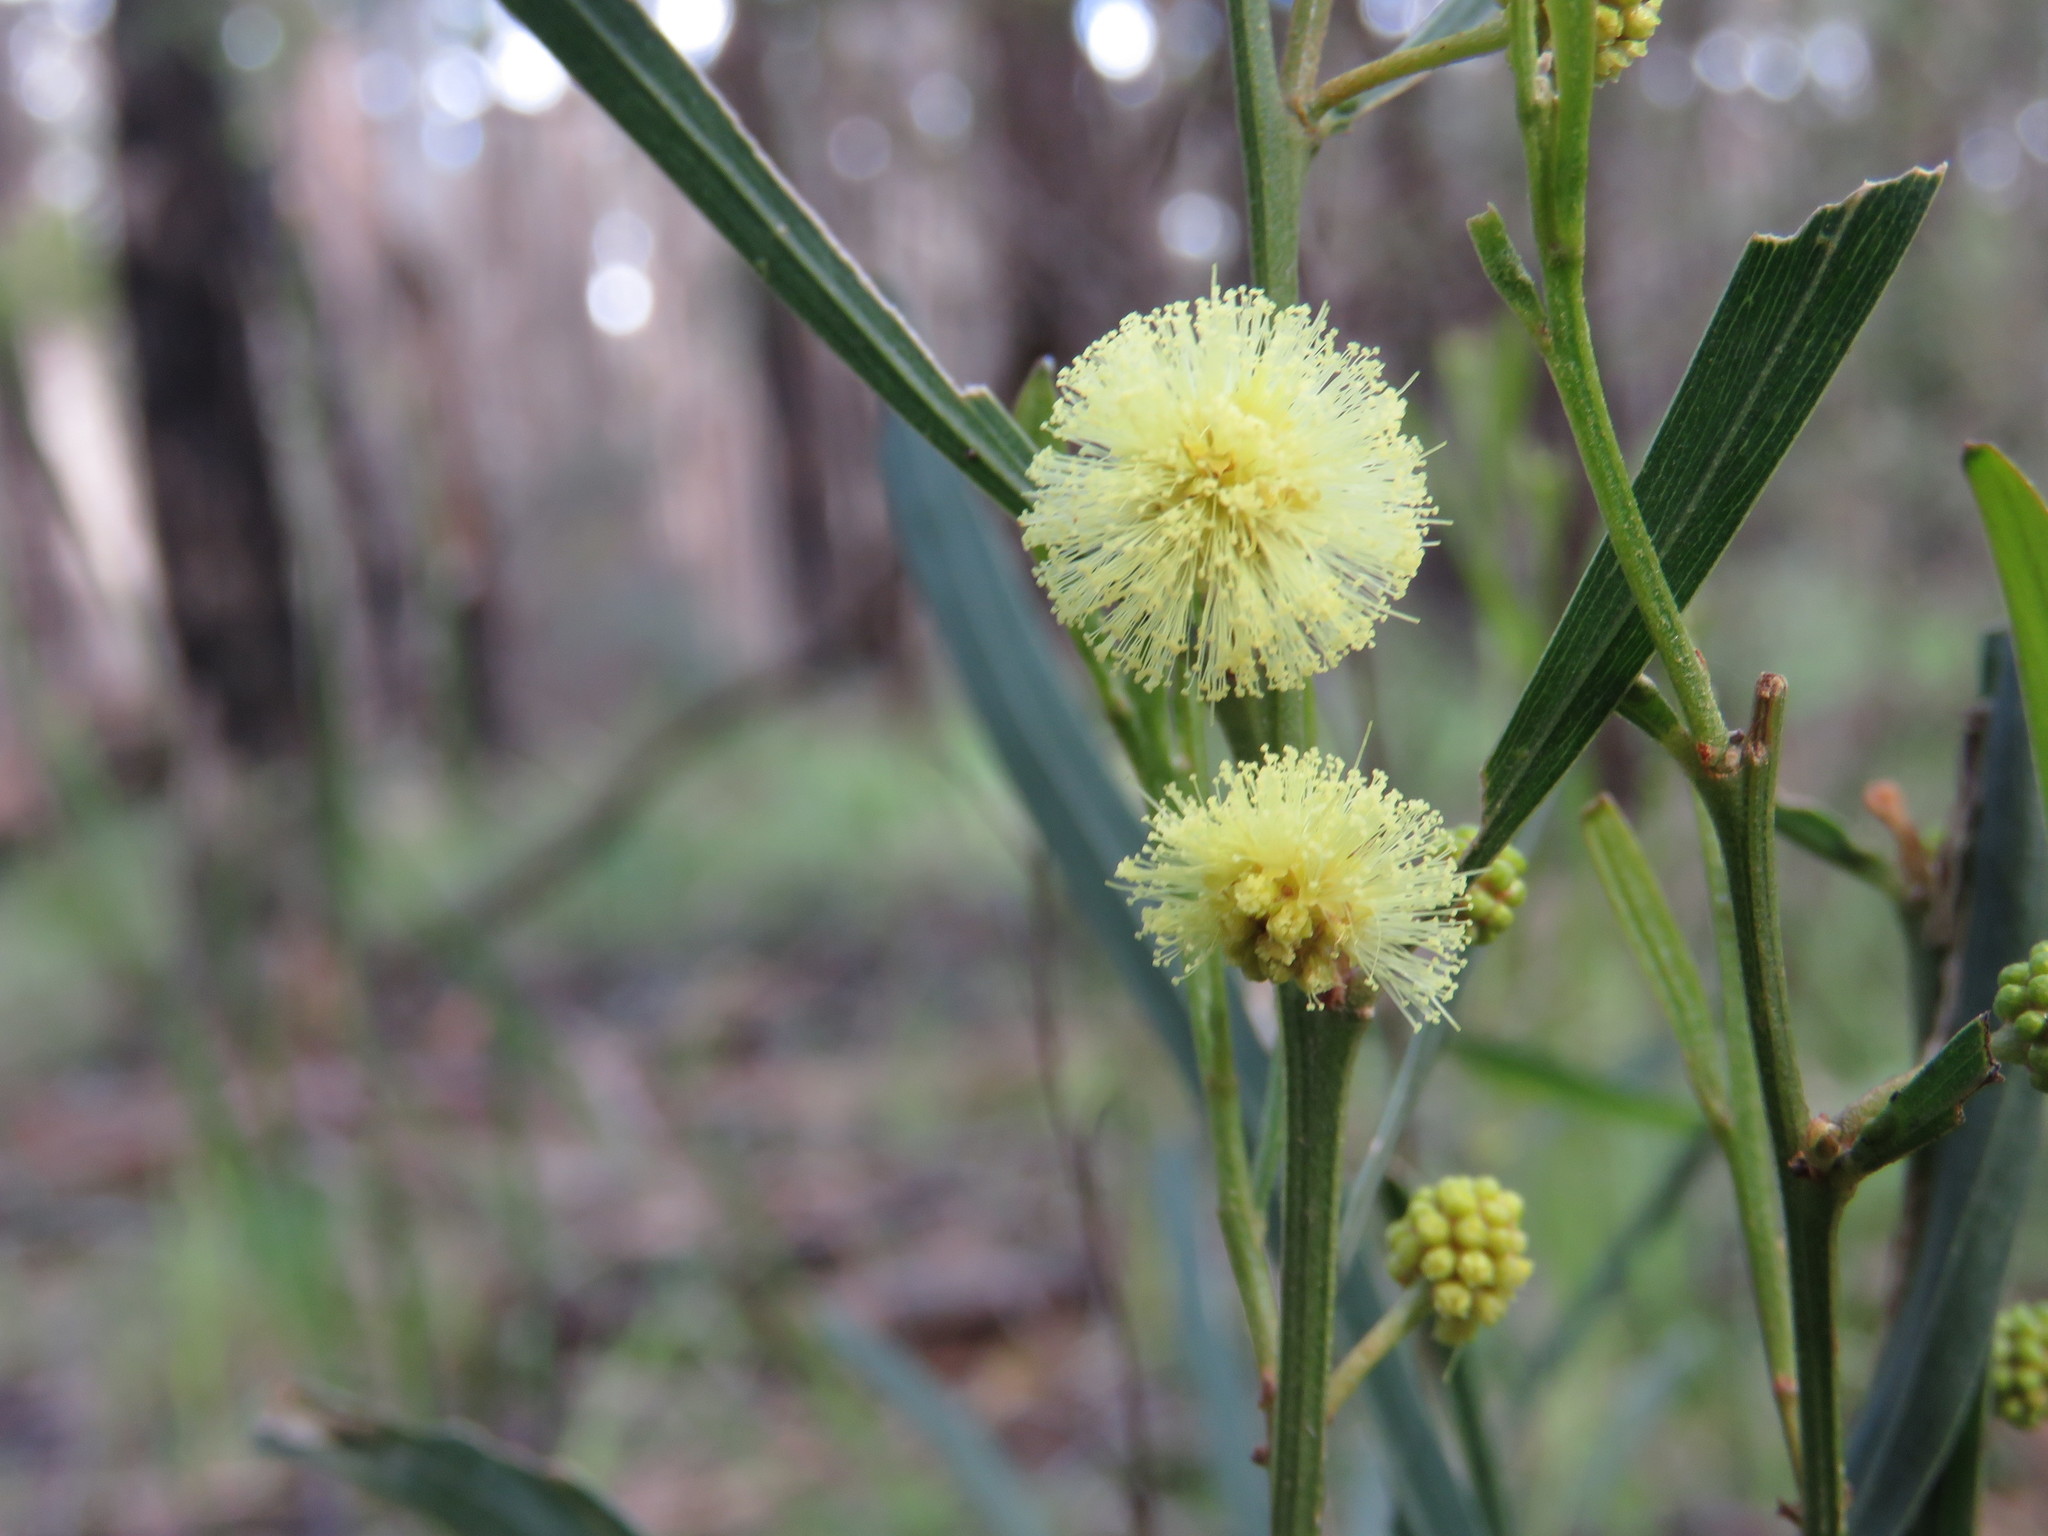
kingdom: Plantae
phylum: Tracheophyta
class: Magnoliopsida
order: Fabales
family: Fabaceae
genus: Acacia
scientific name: Acacia stricta
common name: Hop wattle
